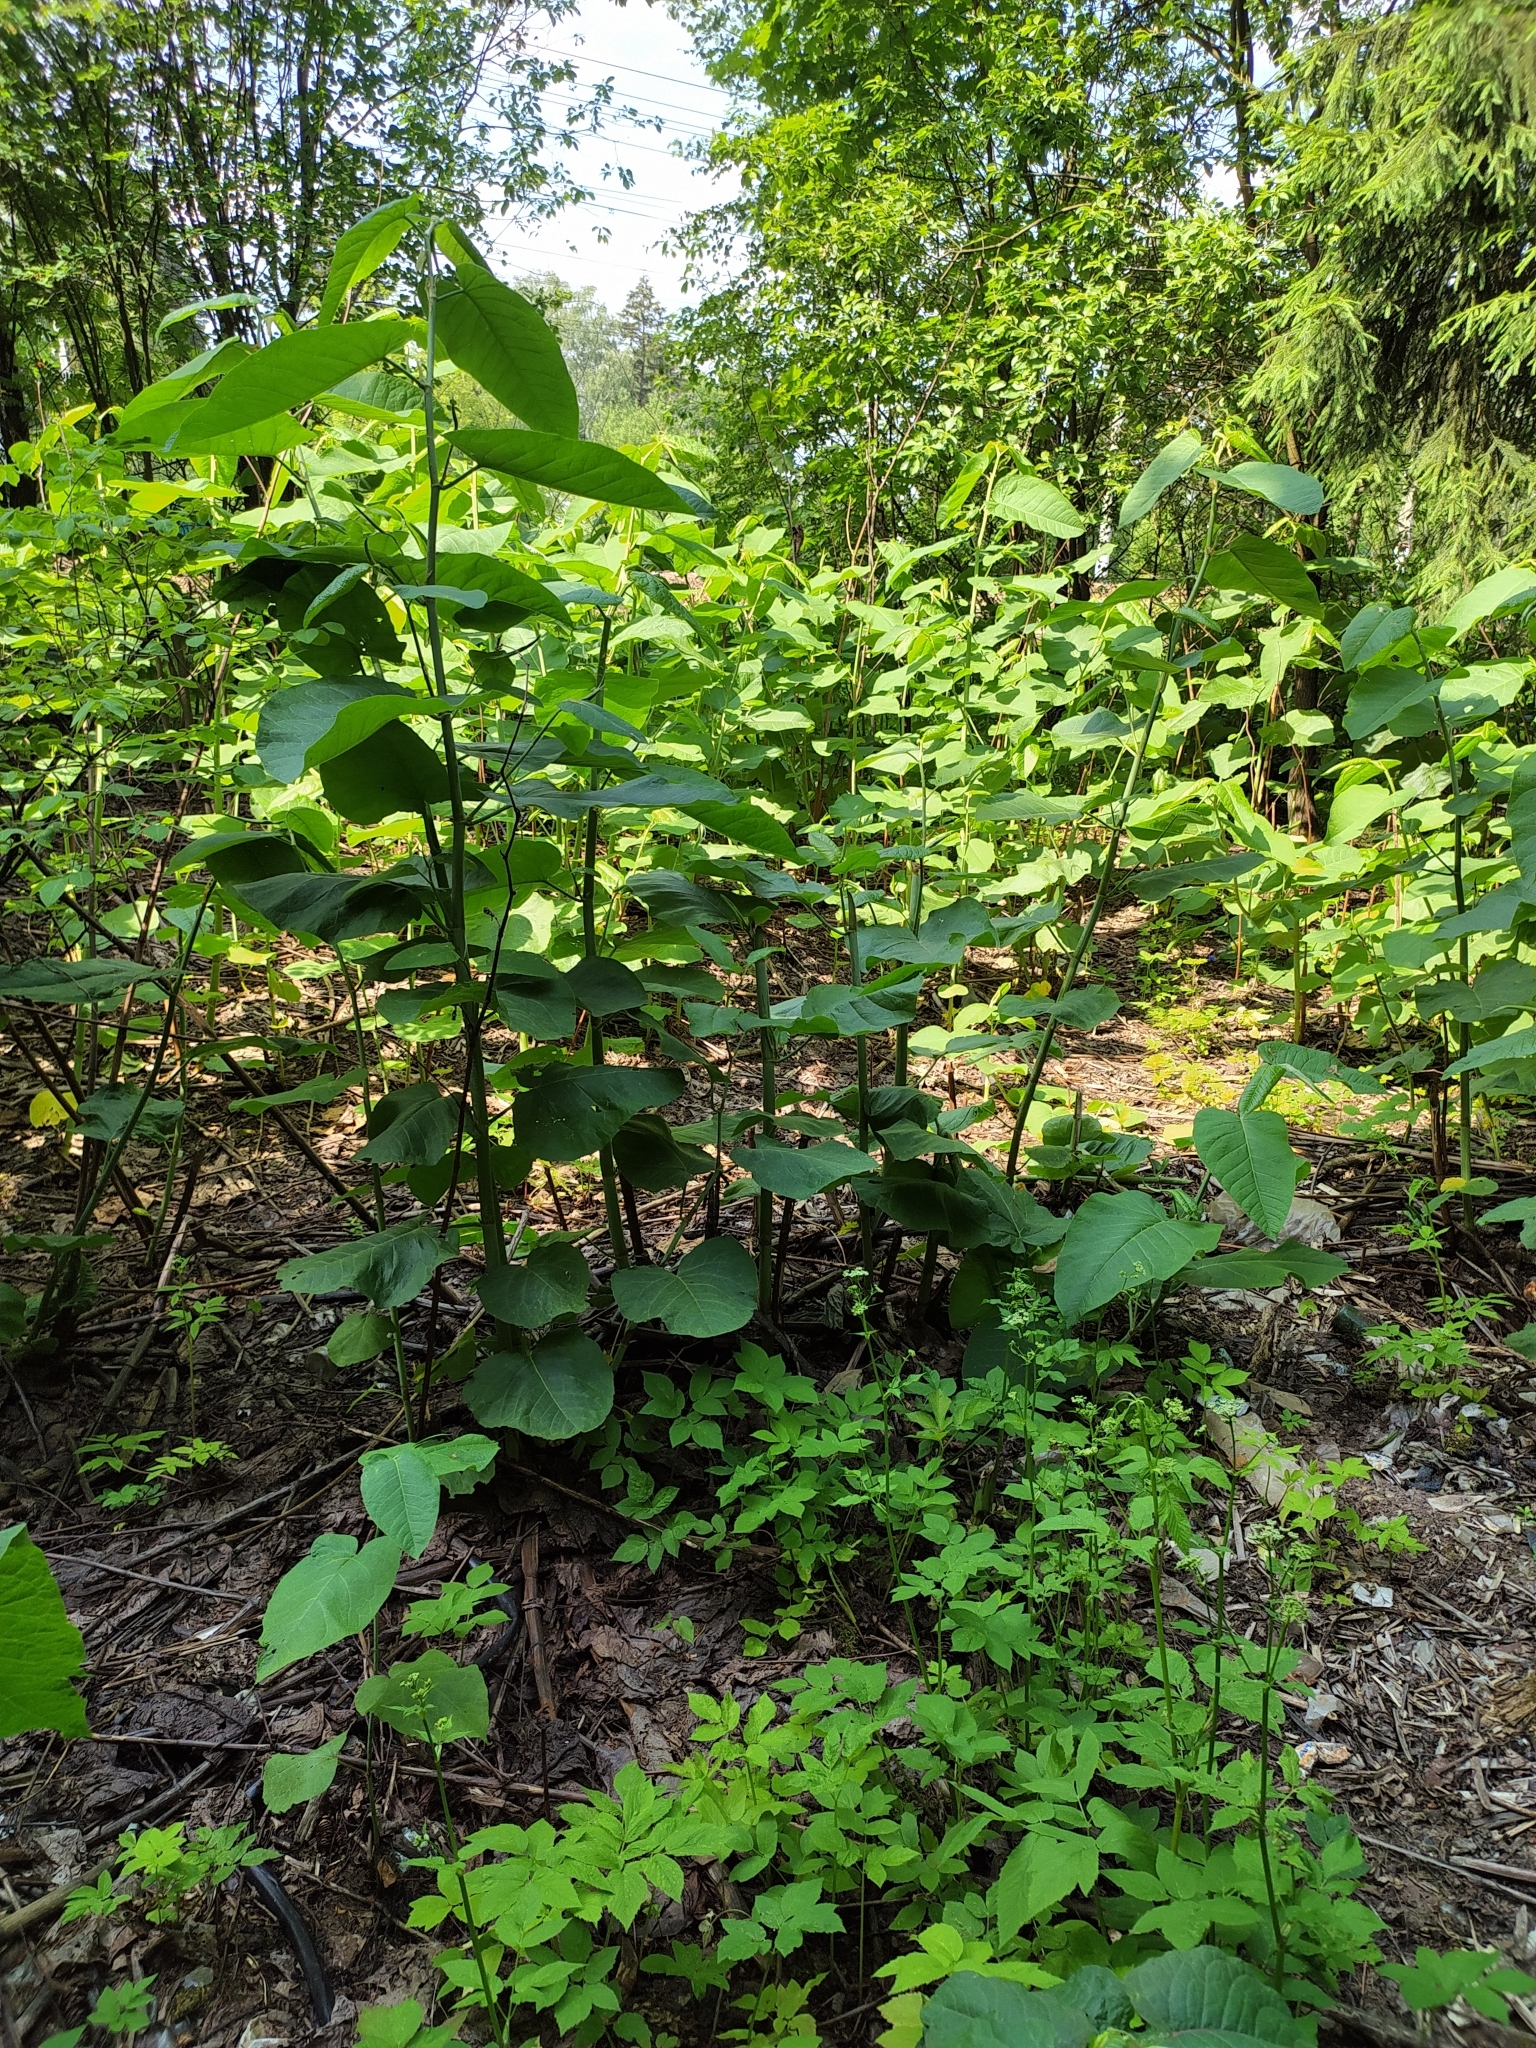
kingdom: Plantae
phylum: Tracheophyta
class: Magnoliopsida
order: Caryophyllales
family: Polygonaceae
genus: Reynoutria
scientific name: Reynoutria sachalinensis
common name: Giant knotweed
